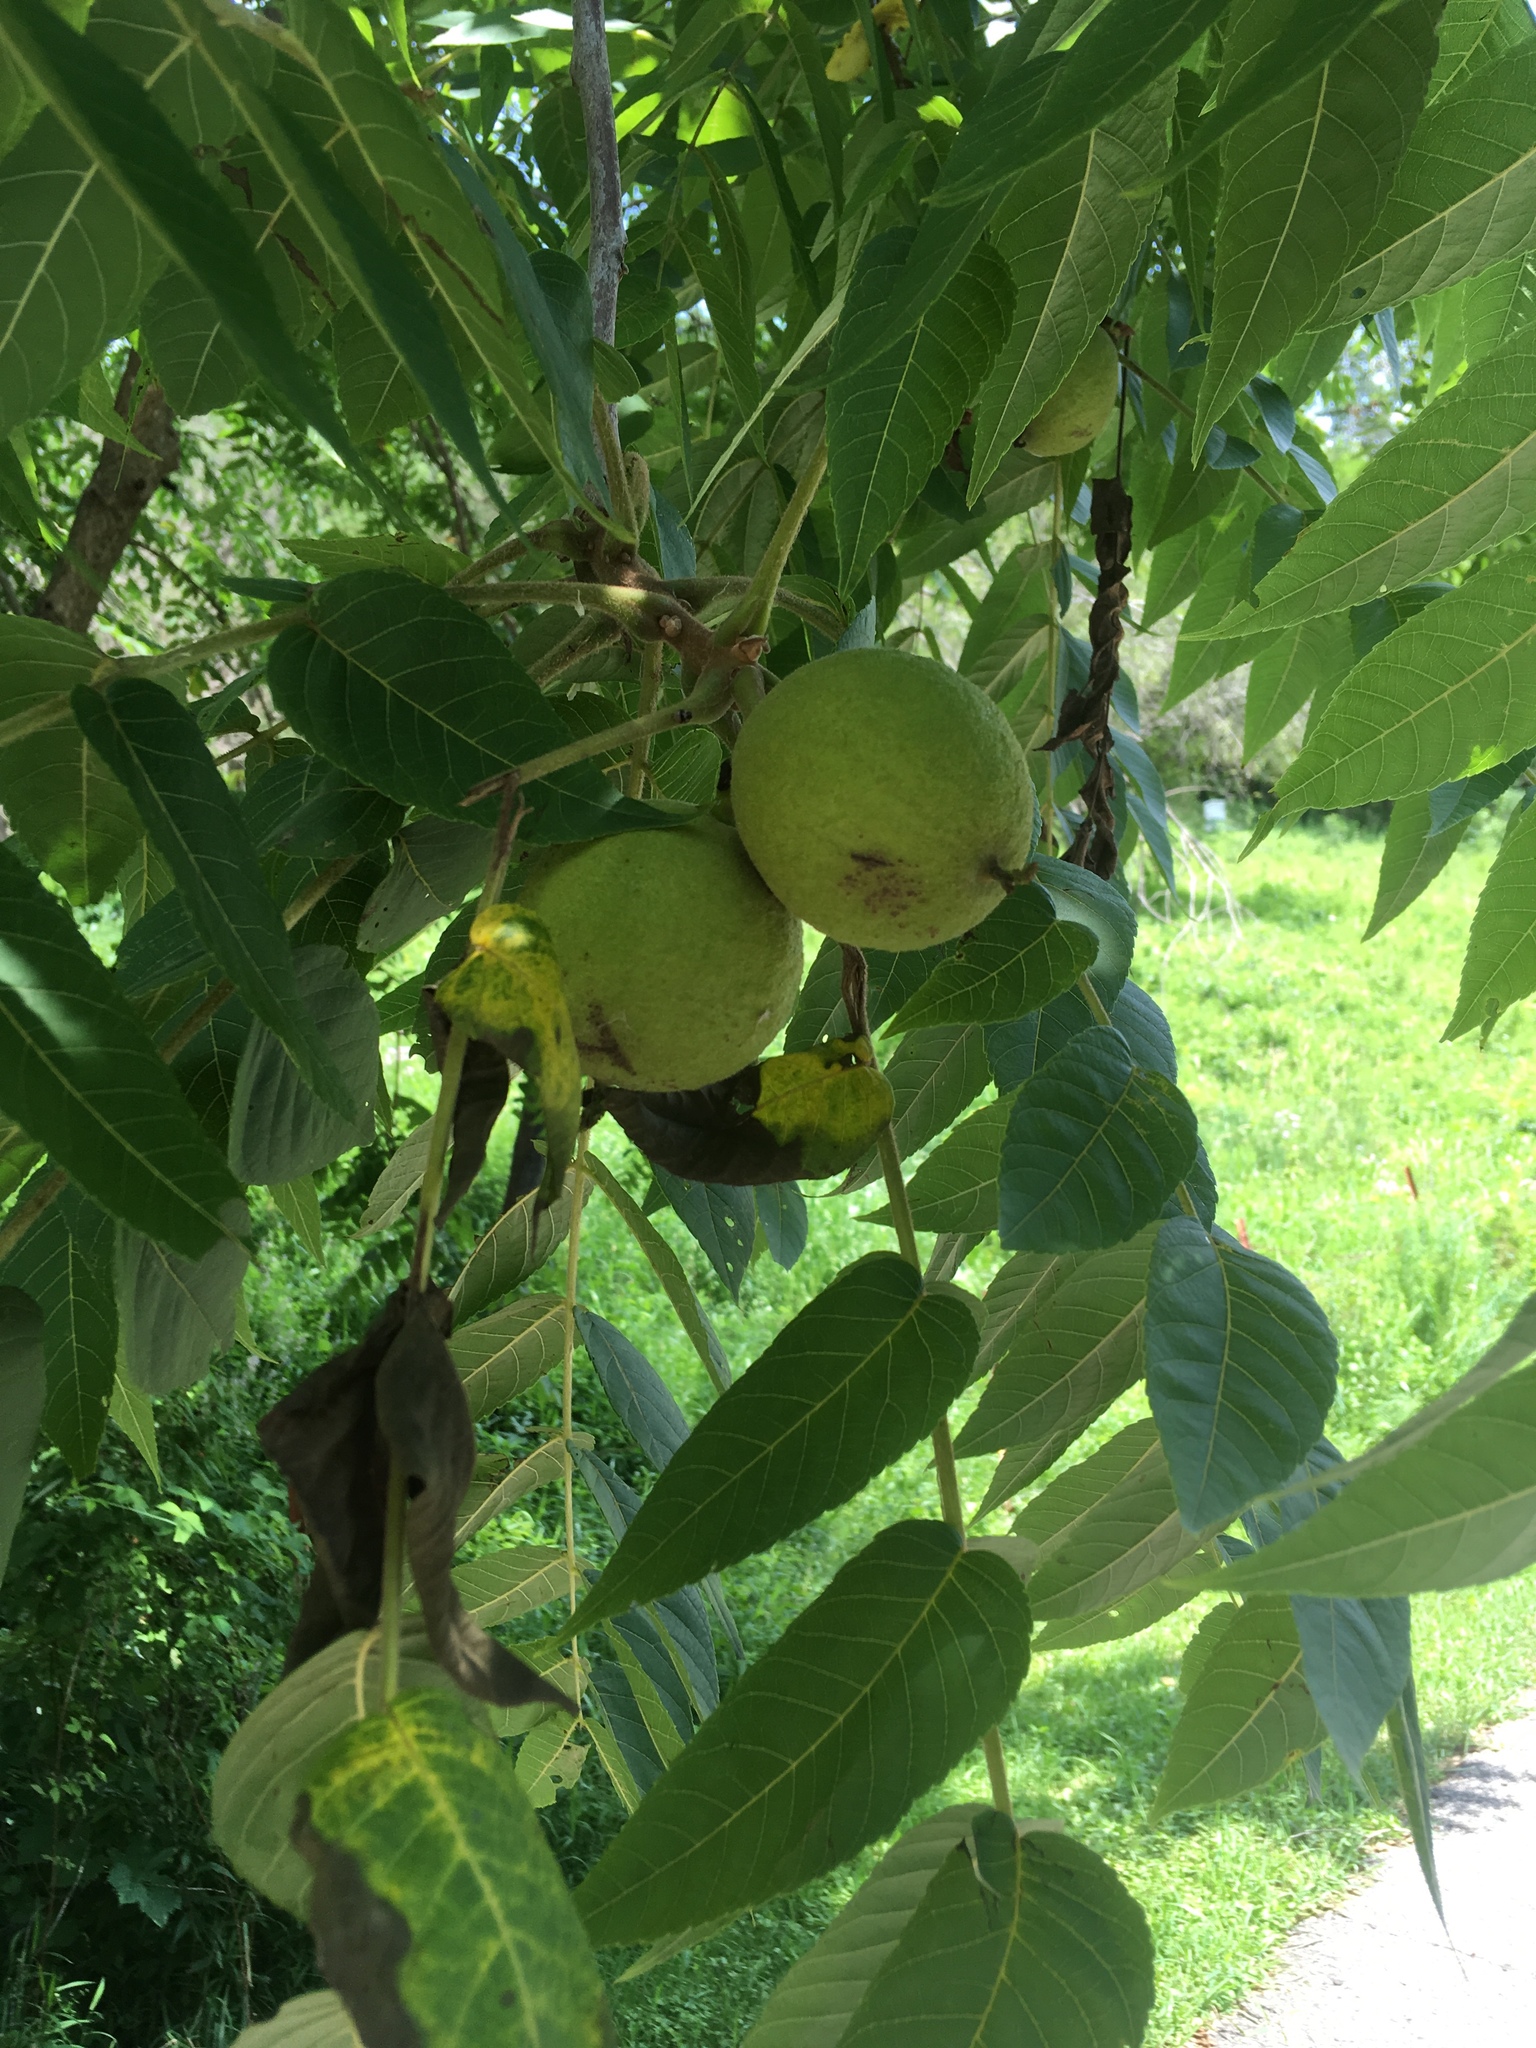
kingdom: Plantae
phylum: Tracheophyta
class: Magnoliopsida
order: Fagales
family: Juglandaceae
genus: Juglans
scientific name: Juglans nigra
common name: Black walnut
